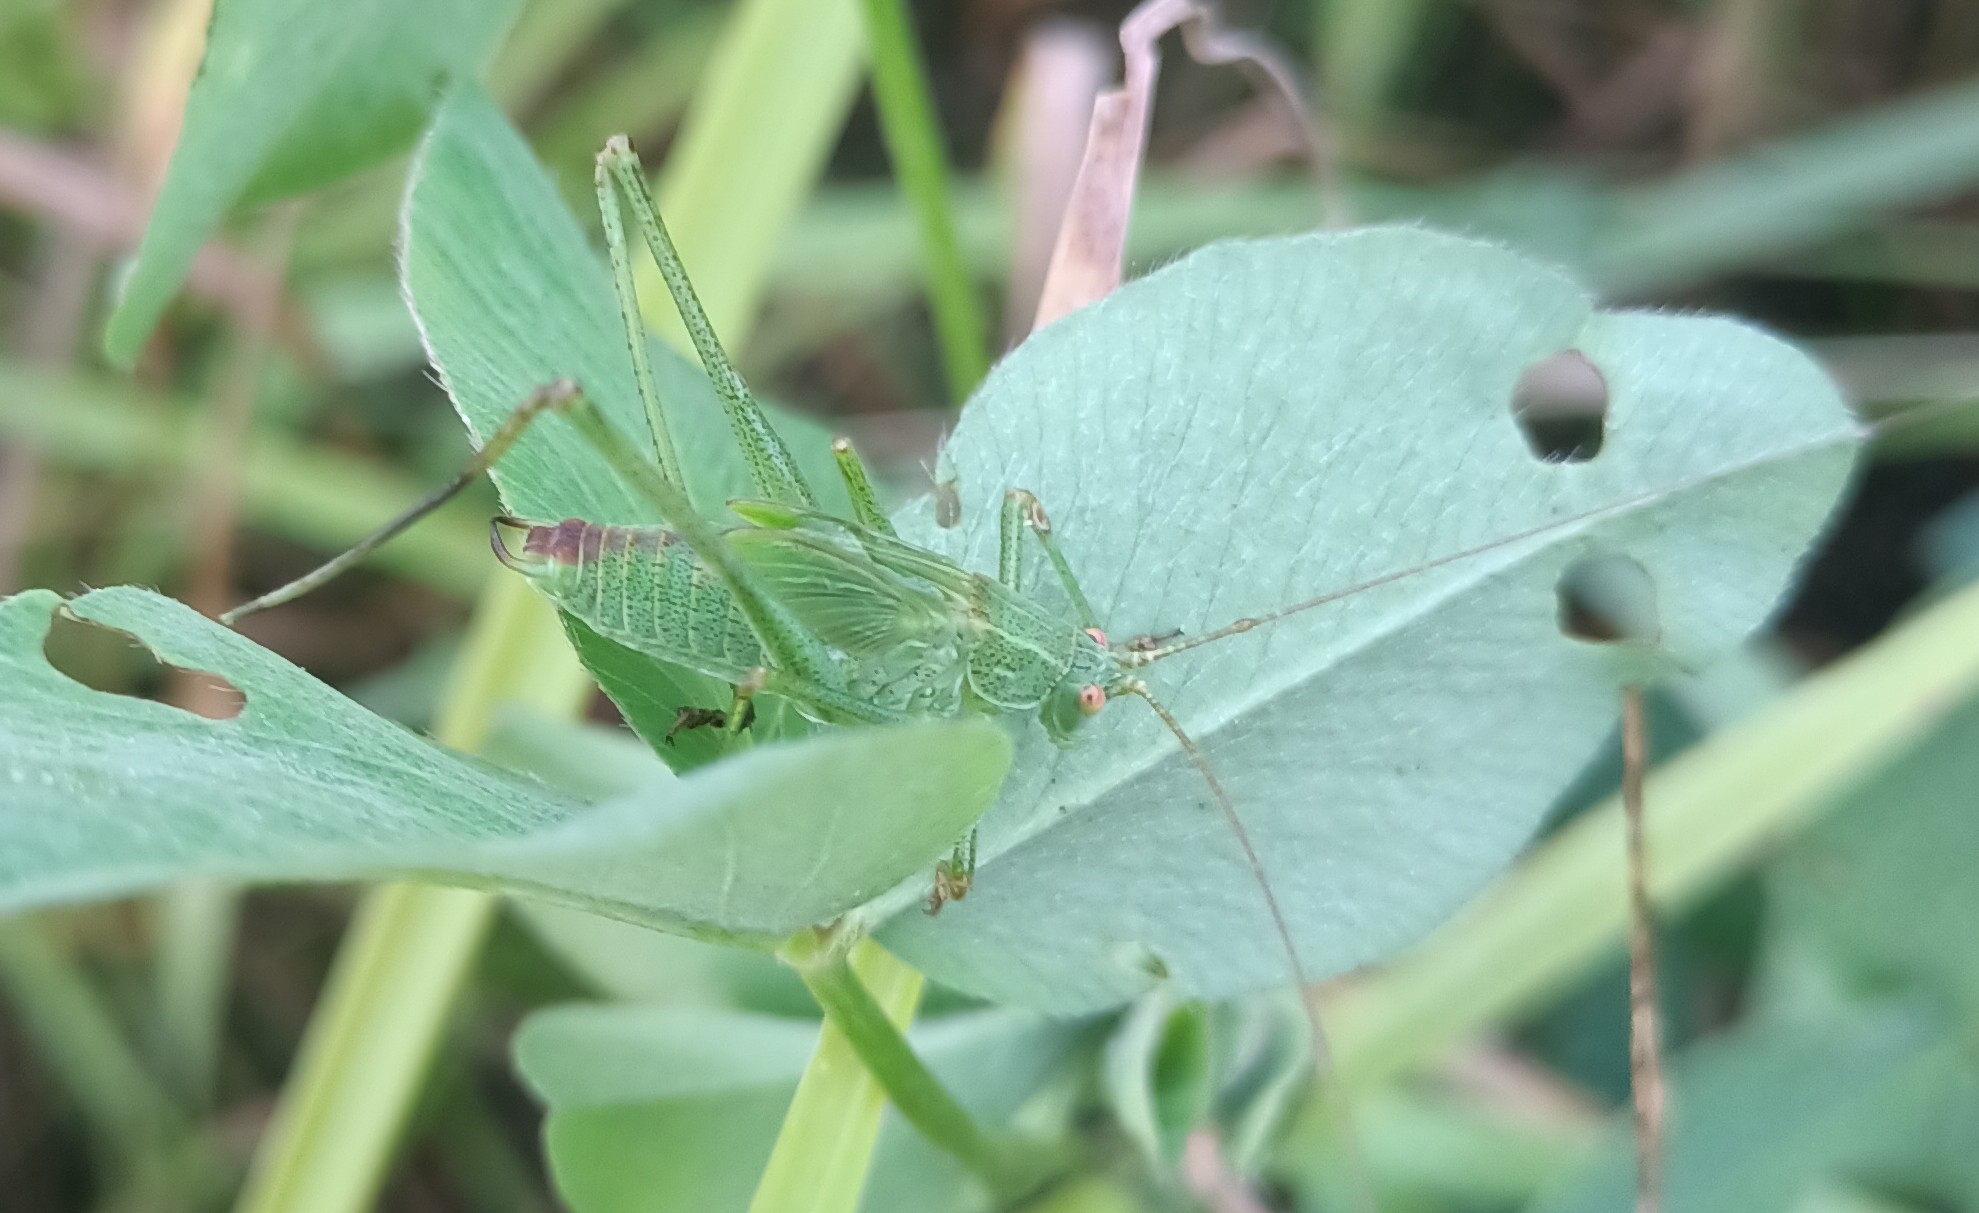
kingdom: Animalia
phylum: Arthropoda
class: Insecta
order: Orthoptera
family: Tettigoniidae
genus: Conocephalus
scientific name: Conocephalus fuscus
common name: Long-winged conehead
